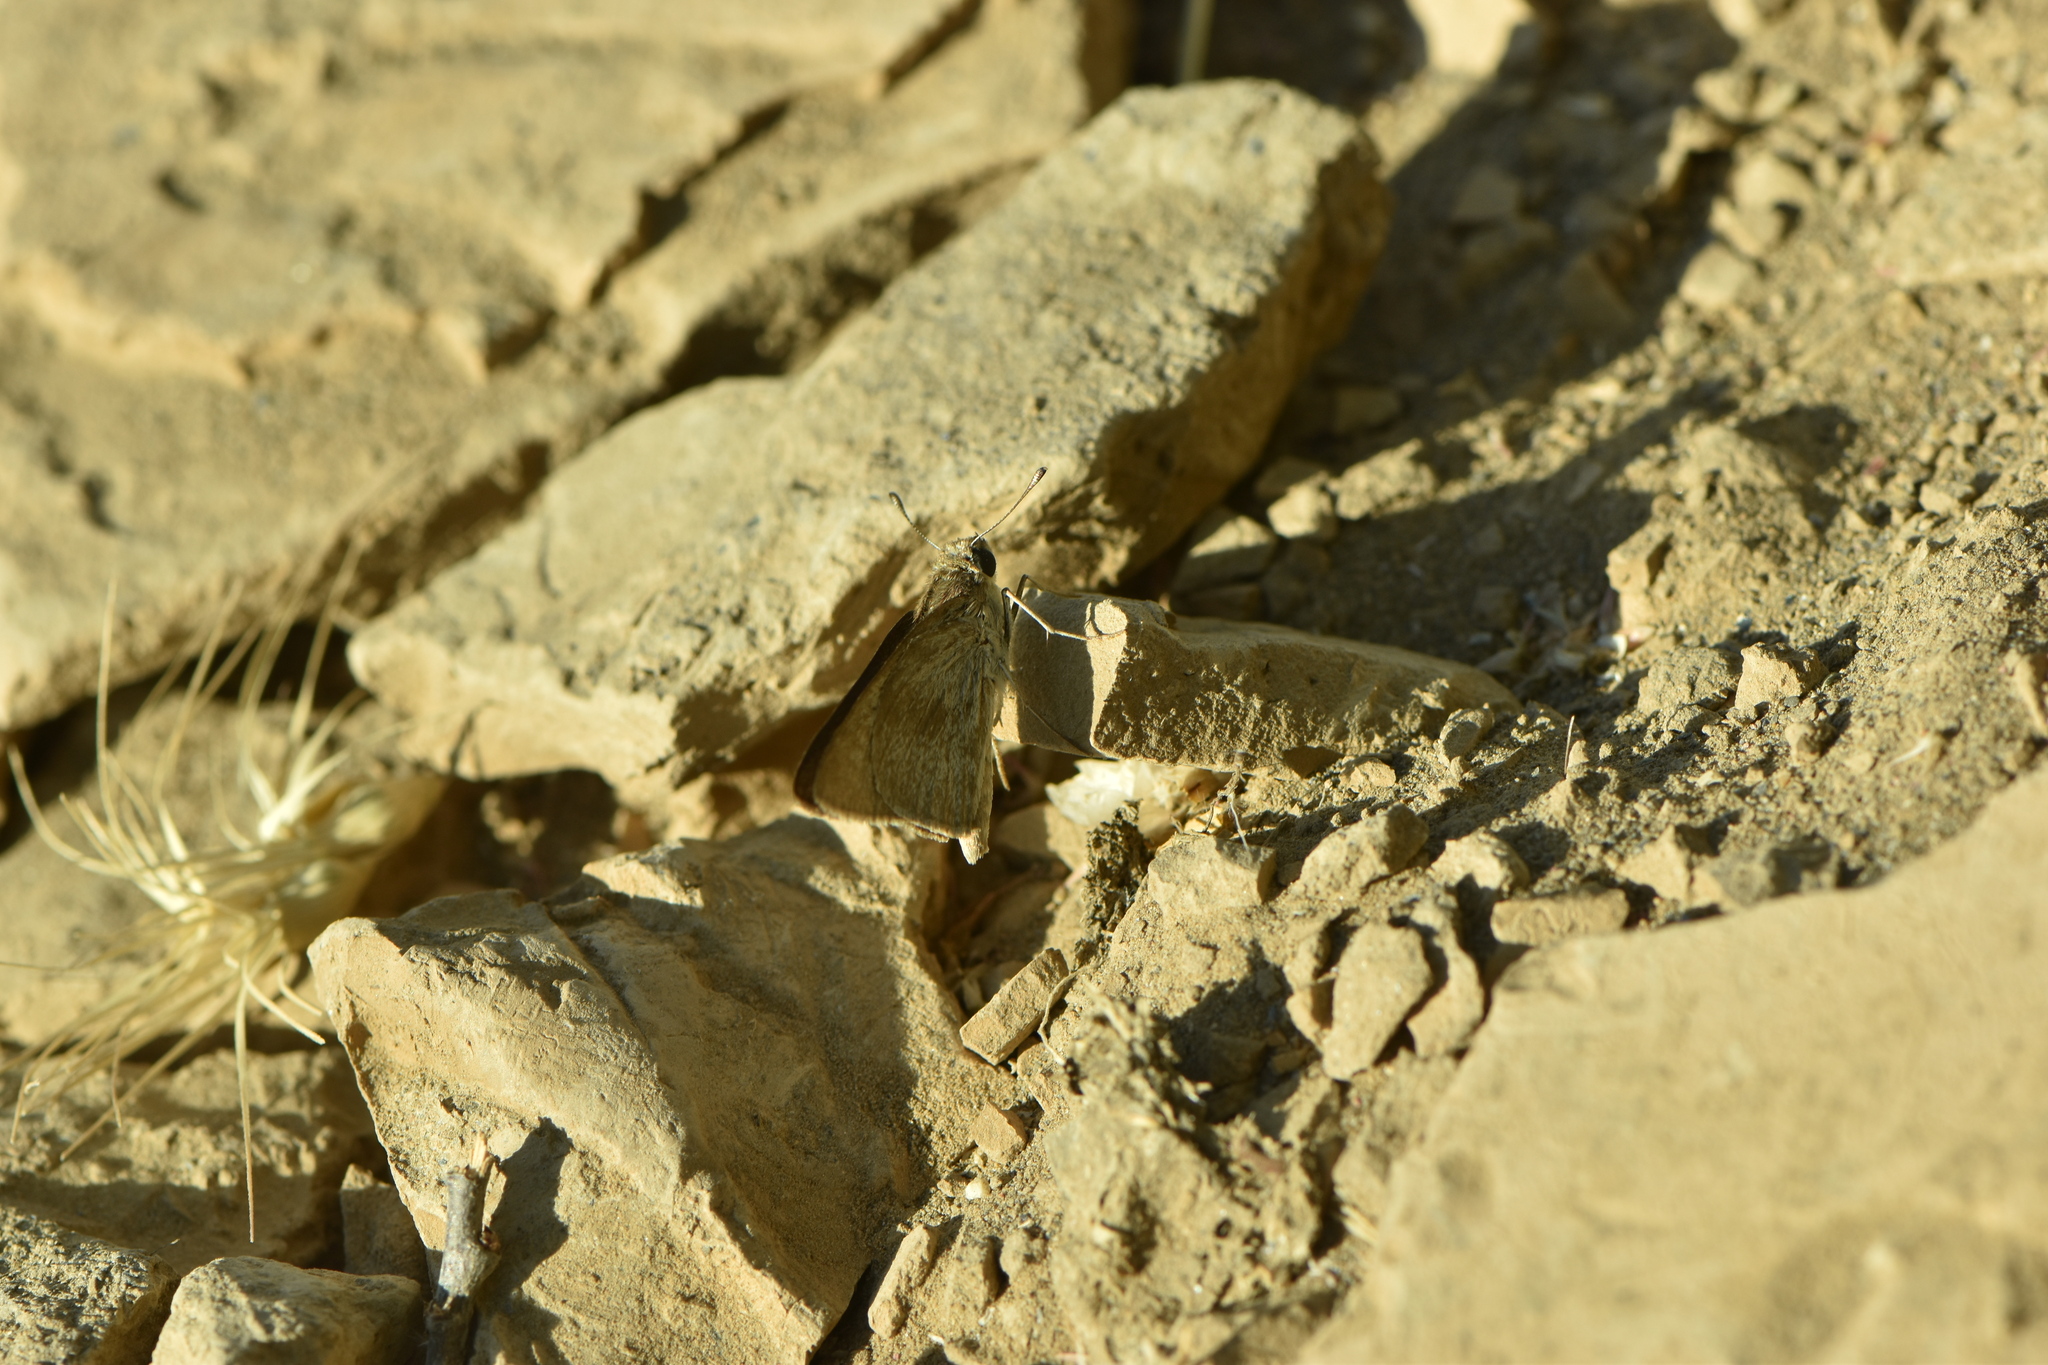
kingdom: Animalia
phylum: Arthropoda
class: Insecta
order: Lepidoptera
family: Hesperiidae
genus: Gegenes
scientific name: Gegenes nostrodamus
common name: Mediterranean skipper
